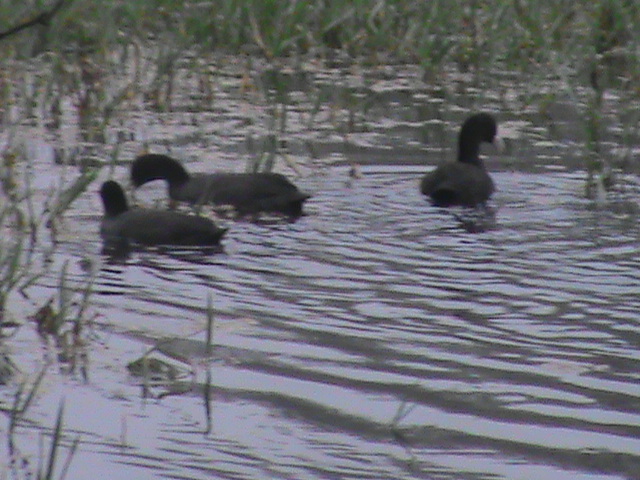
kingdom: Animalia
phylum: Chordata
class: Aves
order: Gruiformes
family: Rallidae
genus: Fulica
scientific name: Fulica atra
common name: Eurasian coot
